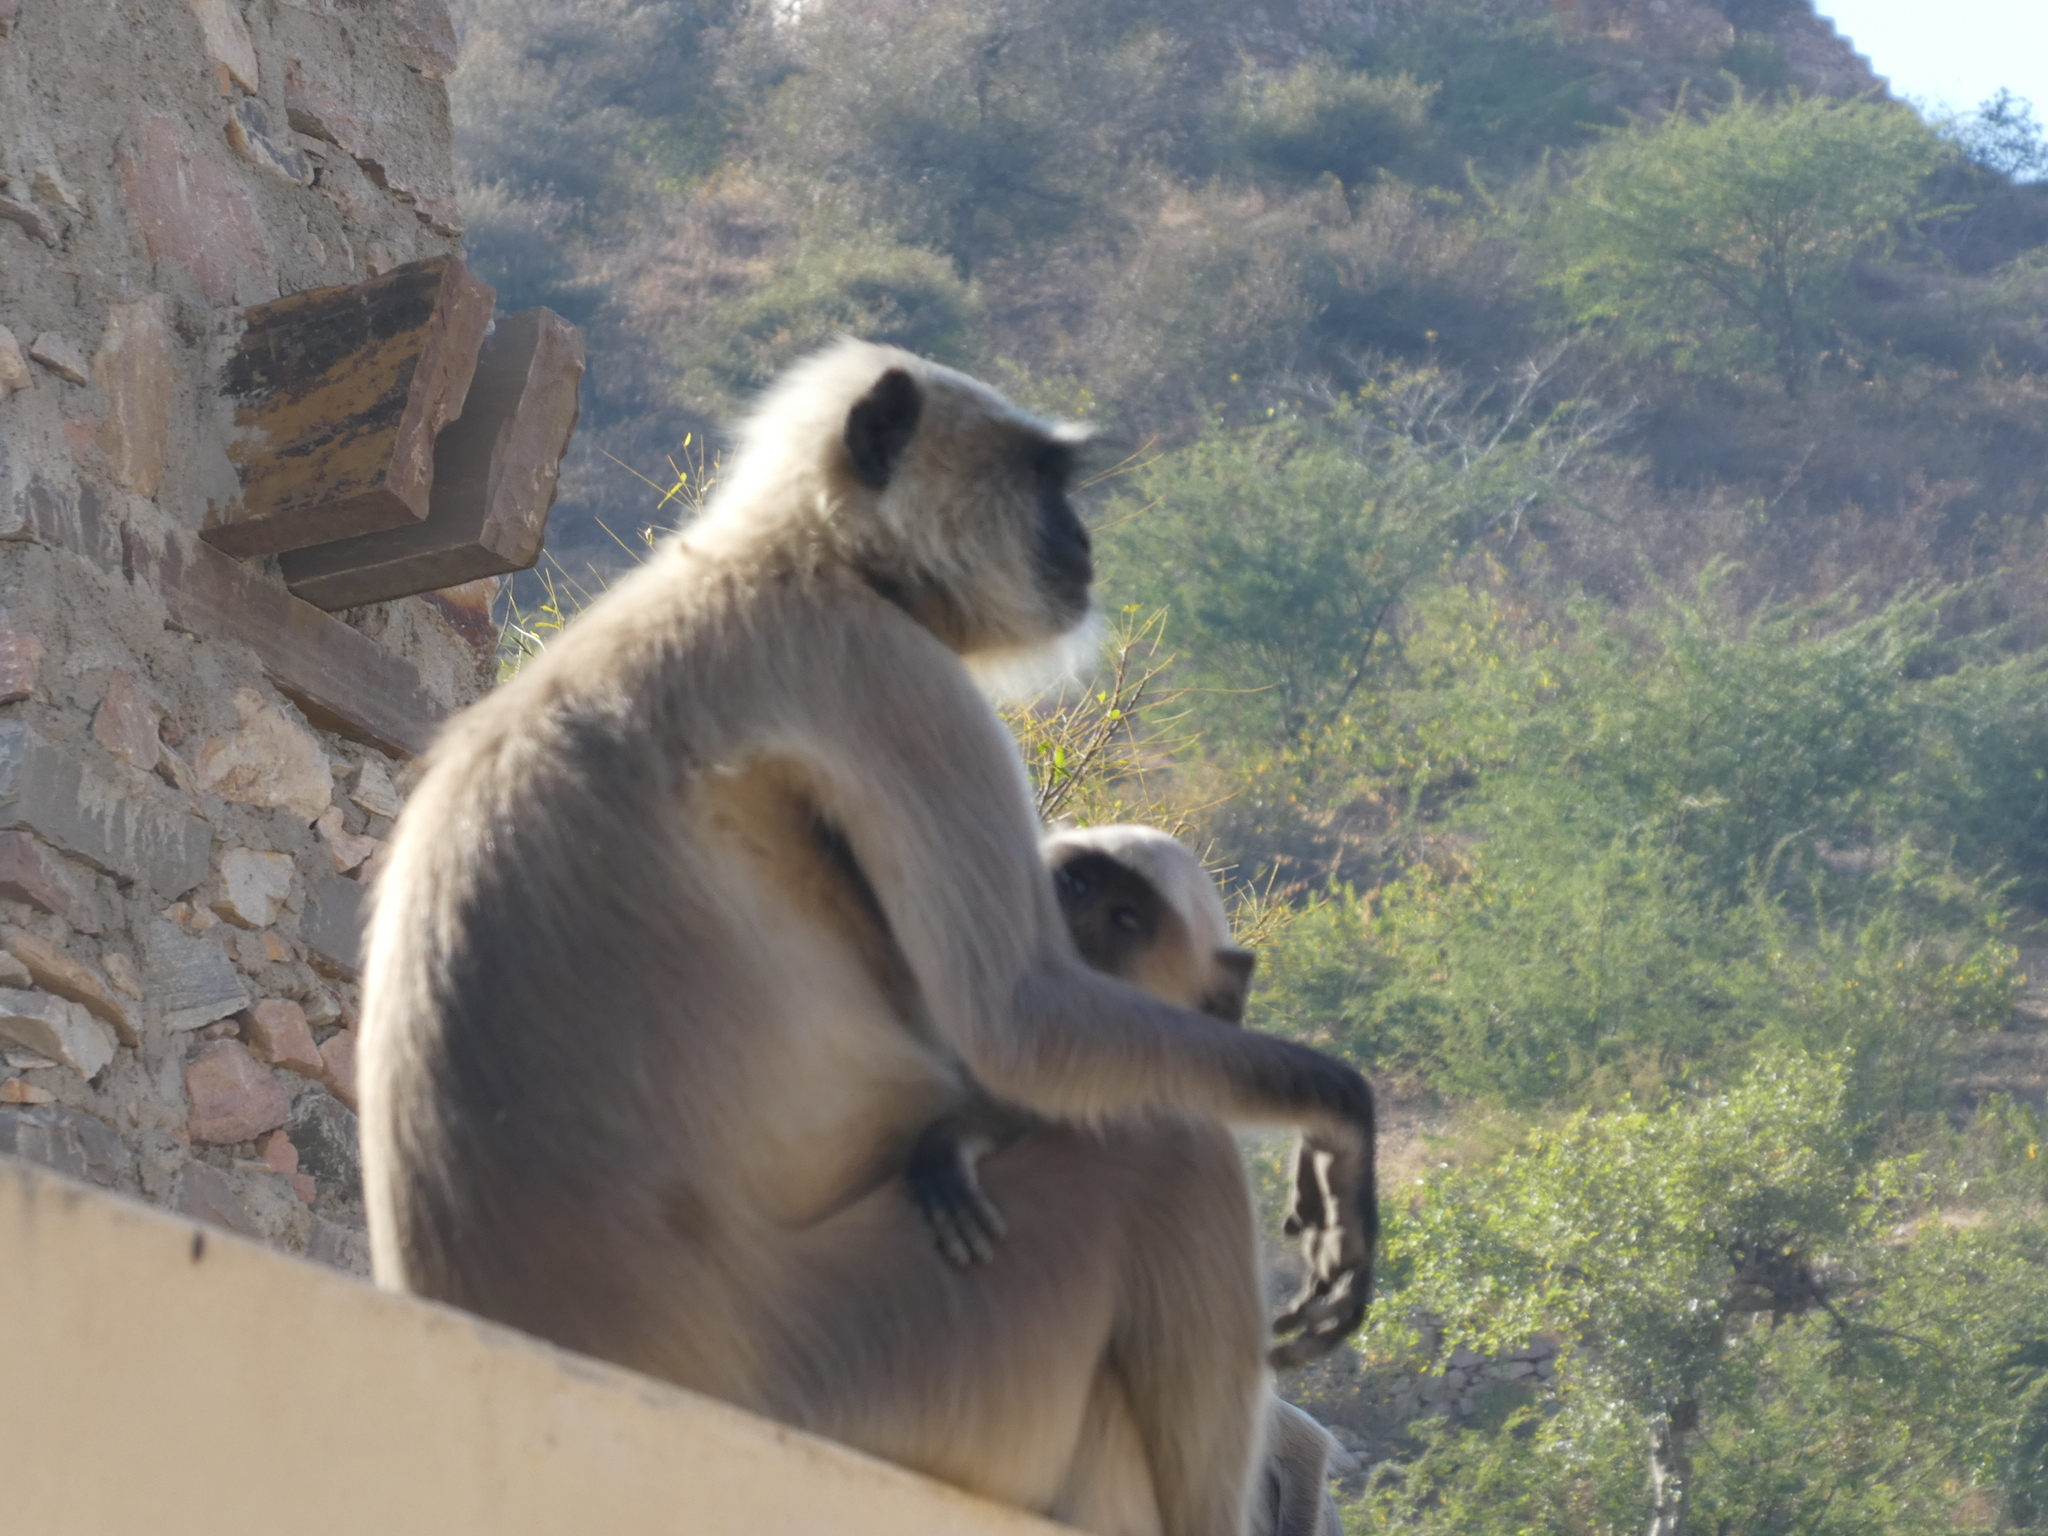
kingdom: Animalia
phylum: Chordata
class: Mammalia
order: Primates
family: Cercopithecidae
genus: Semnopithecus
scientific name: Semnopithecus entellus
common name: Northern plains gray langur
